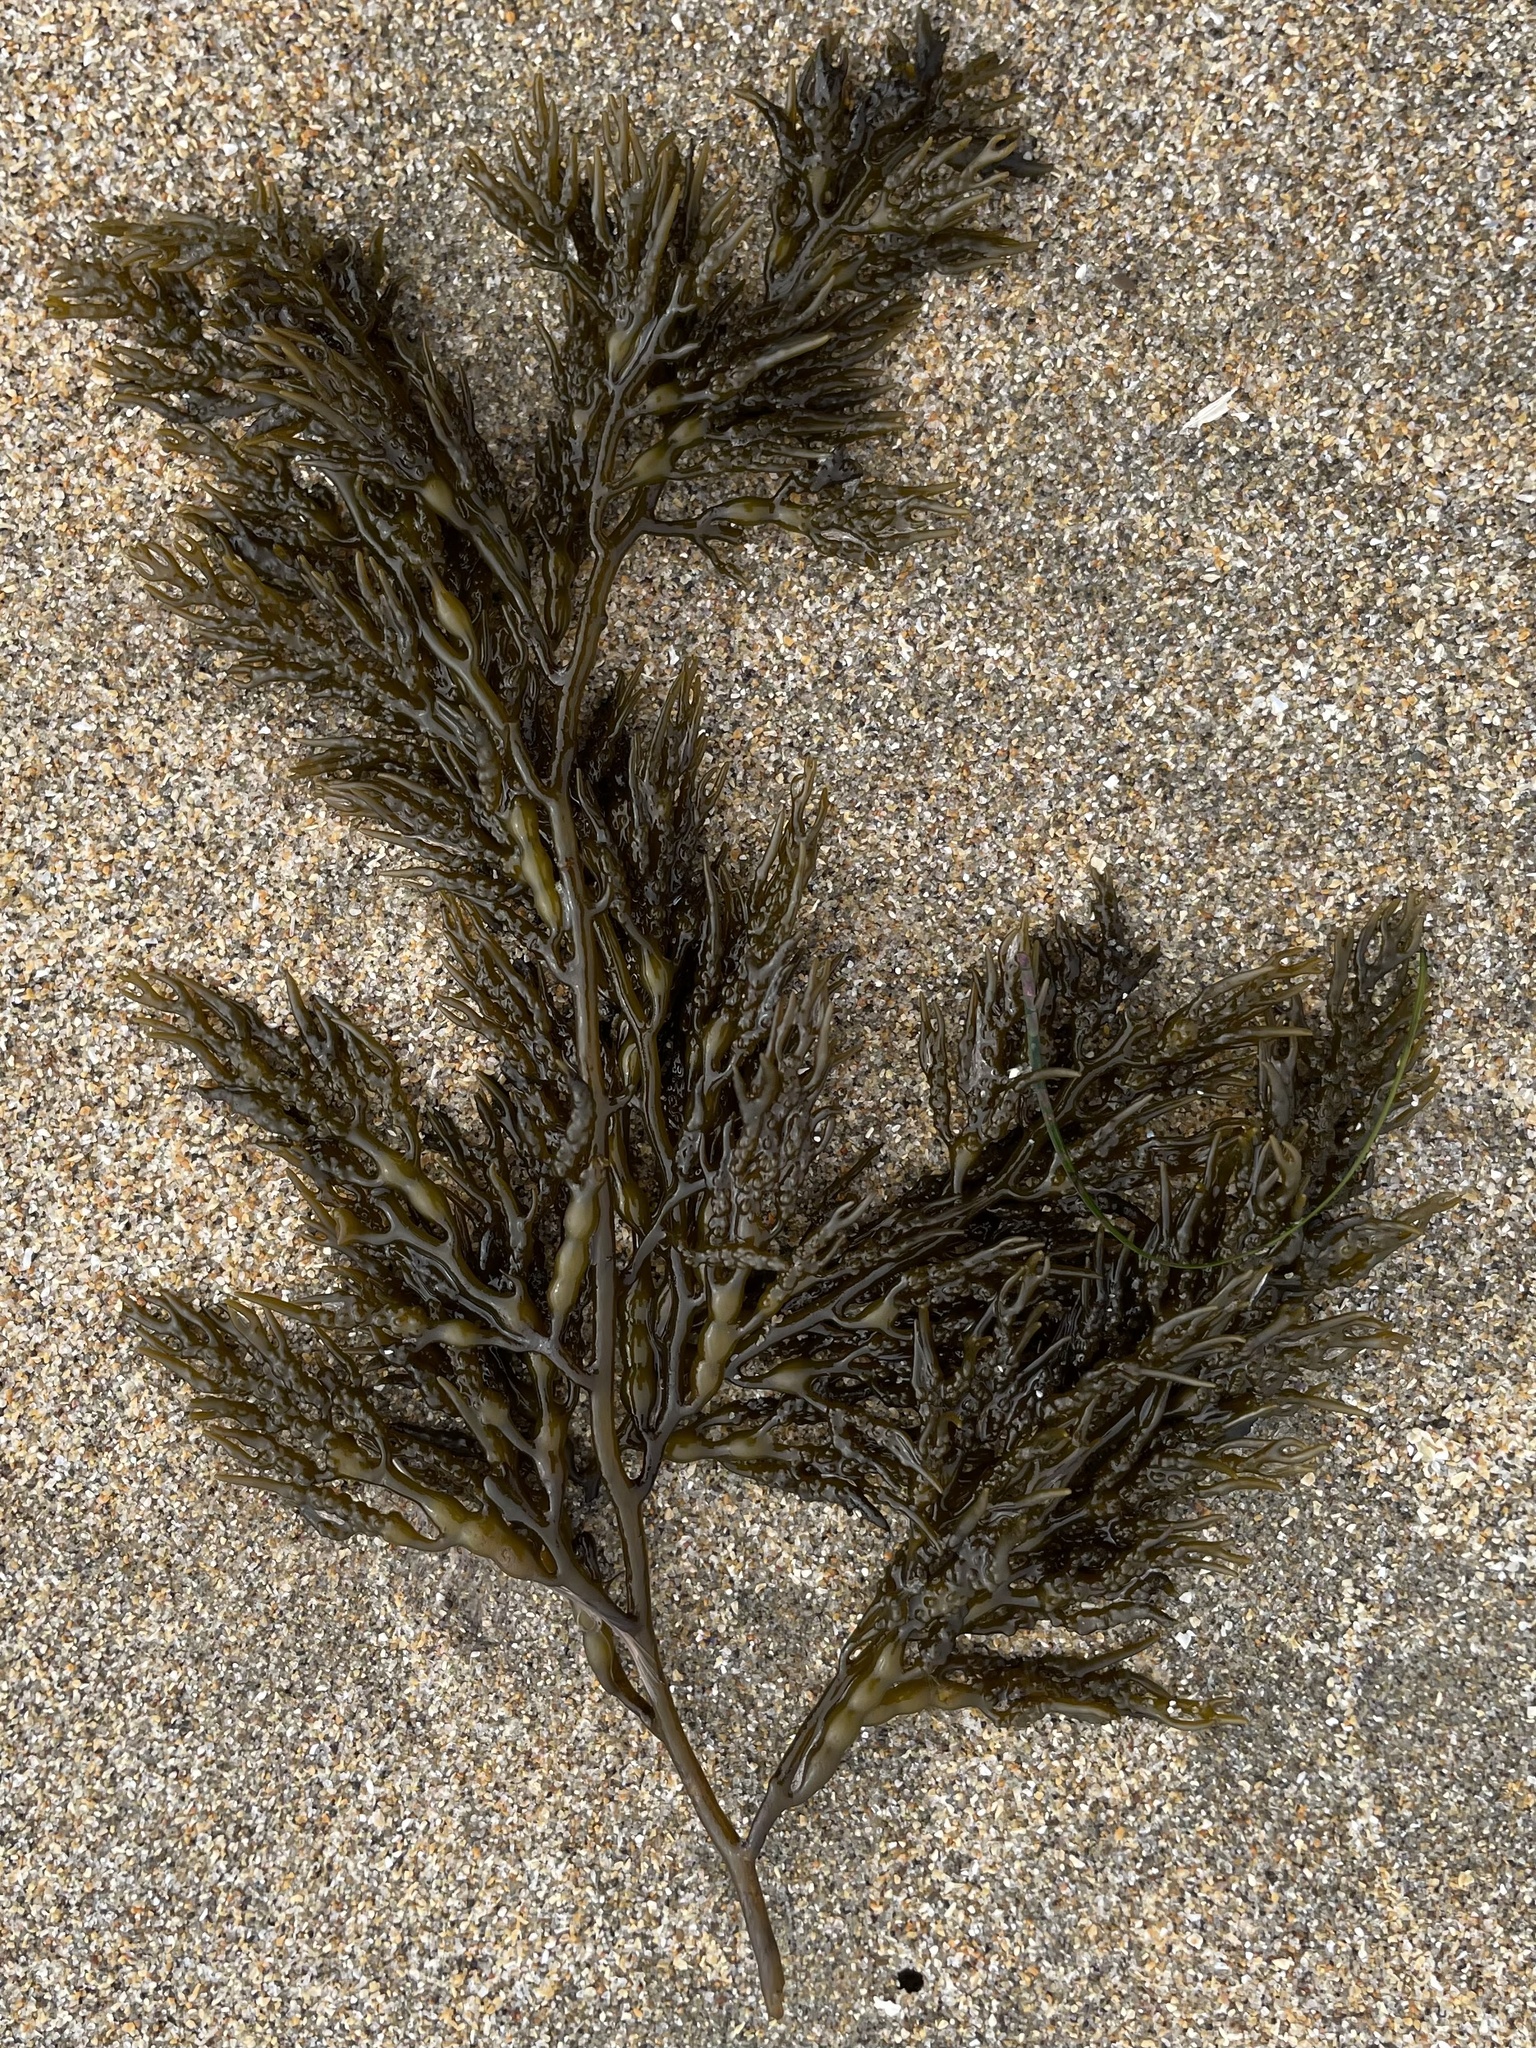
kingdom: Chromista
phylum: Ochrophyta
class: Phaeophyceae
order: Fucales
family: Sargassaceae
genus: Stephanocystis
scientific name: Stephanocystis
